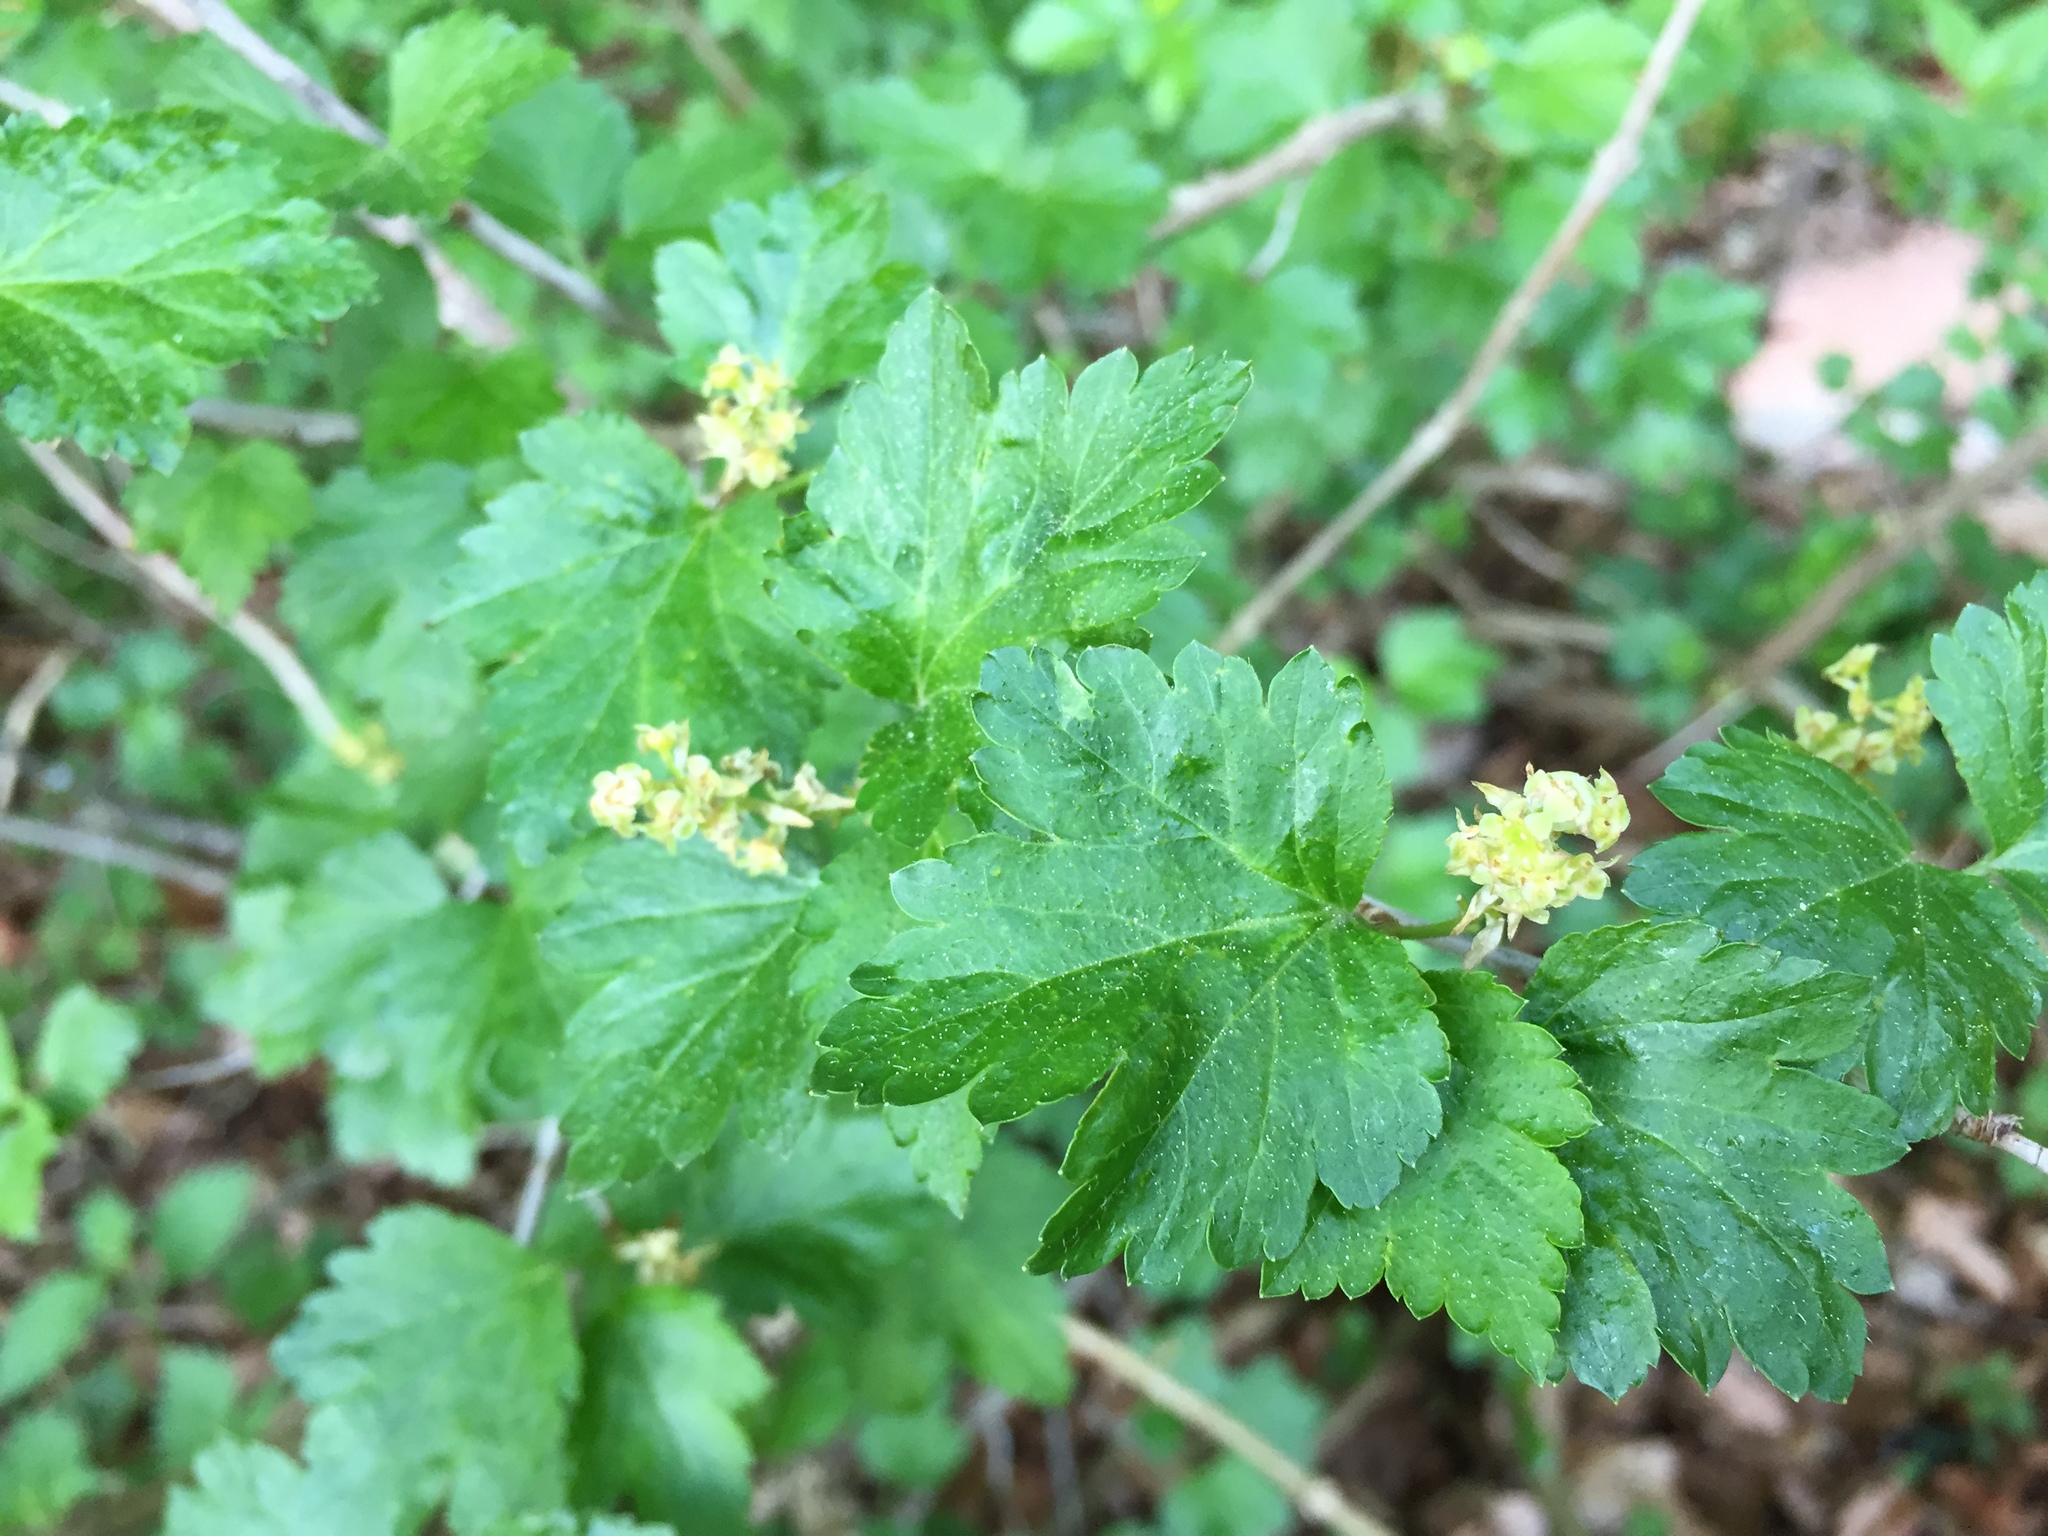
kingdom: Plantae
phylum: Tracheophyta
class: Magnoliopsida
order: Saxifragales
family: Grossulariaceae
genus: Ribes
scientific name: Ribes alpinum
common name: Alpine currant
